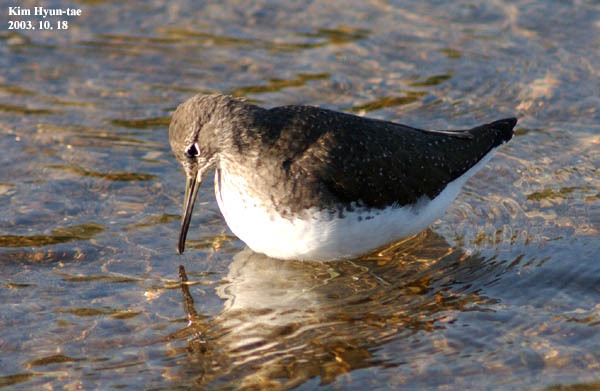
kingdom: Animalia
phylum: Chordata
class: Aves
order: Charadriiformes
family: Scolopacidae
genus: Tringa
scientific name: Tringa ochropus
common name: Green sandpiper
